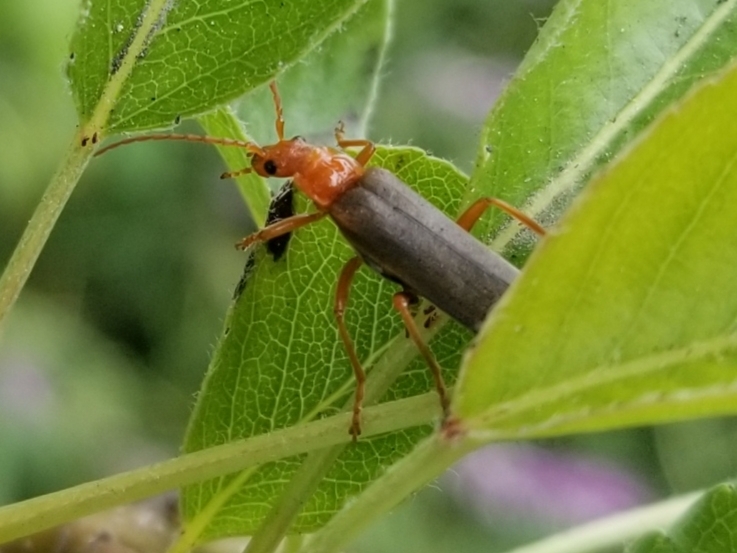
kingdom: Animalia
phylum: Arthropoda
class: Insecta
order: Coleoptera
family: Cantharidae
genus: Podabrus
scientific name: Podabrus pruinosus
